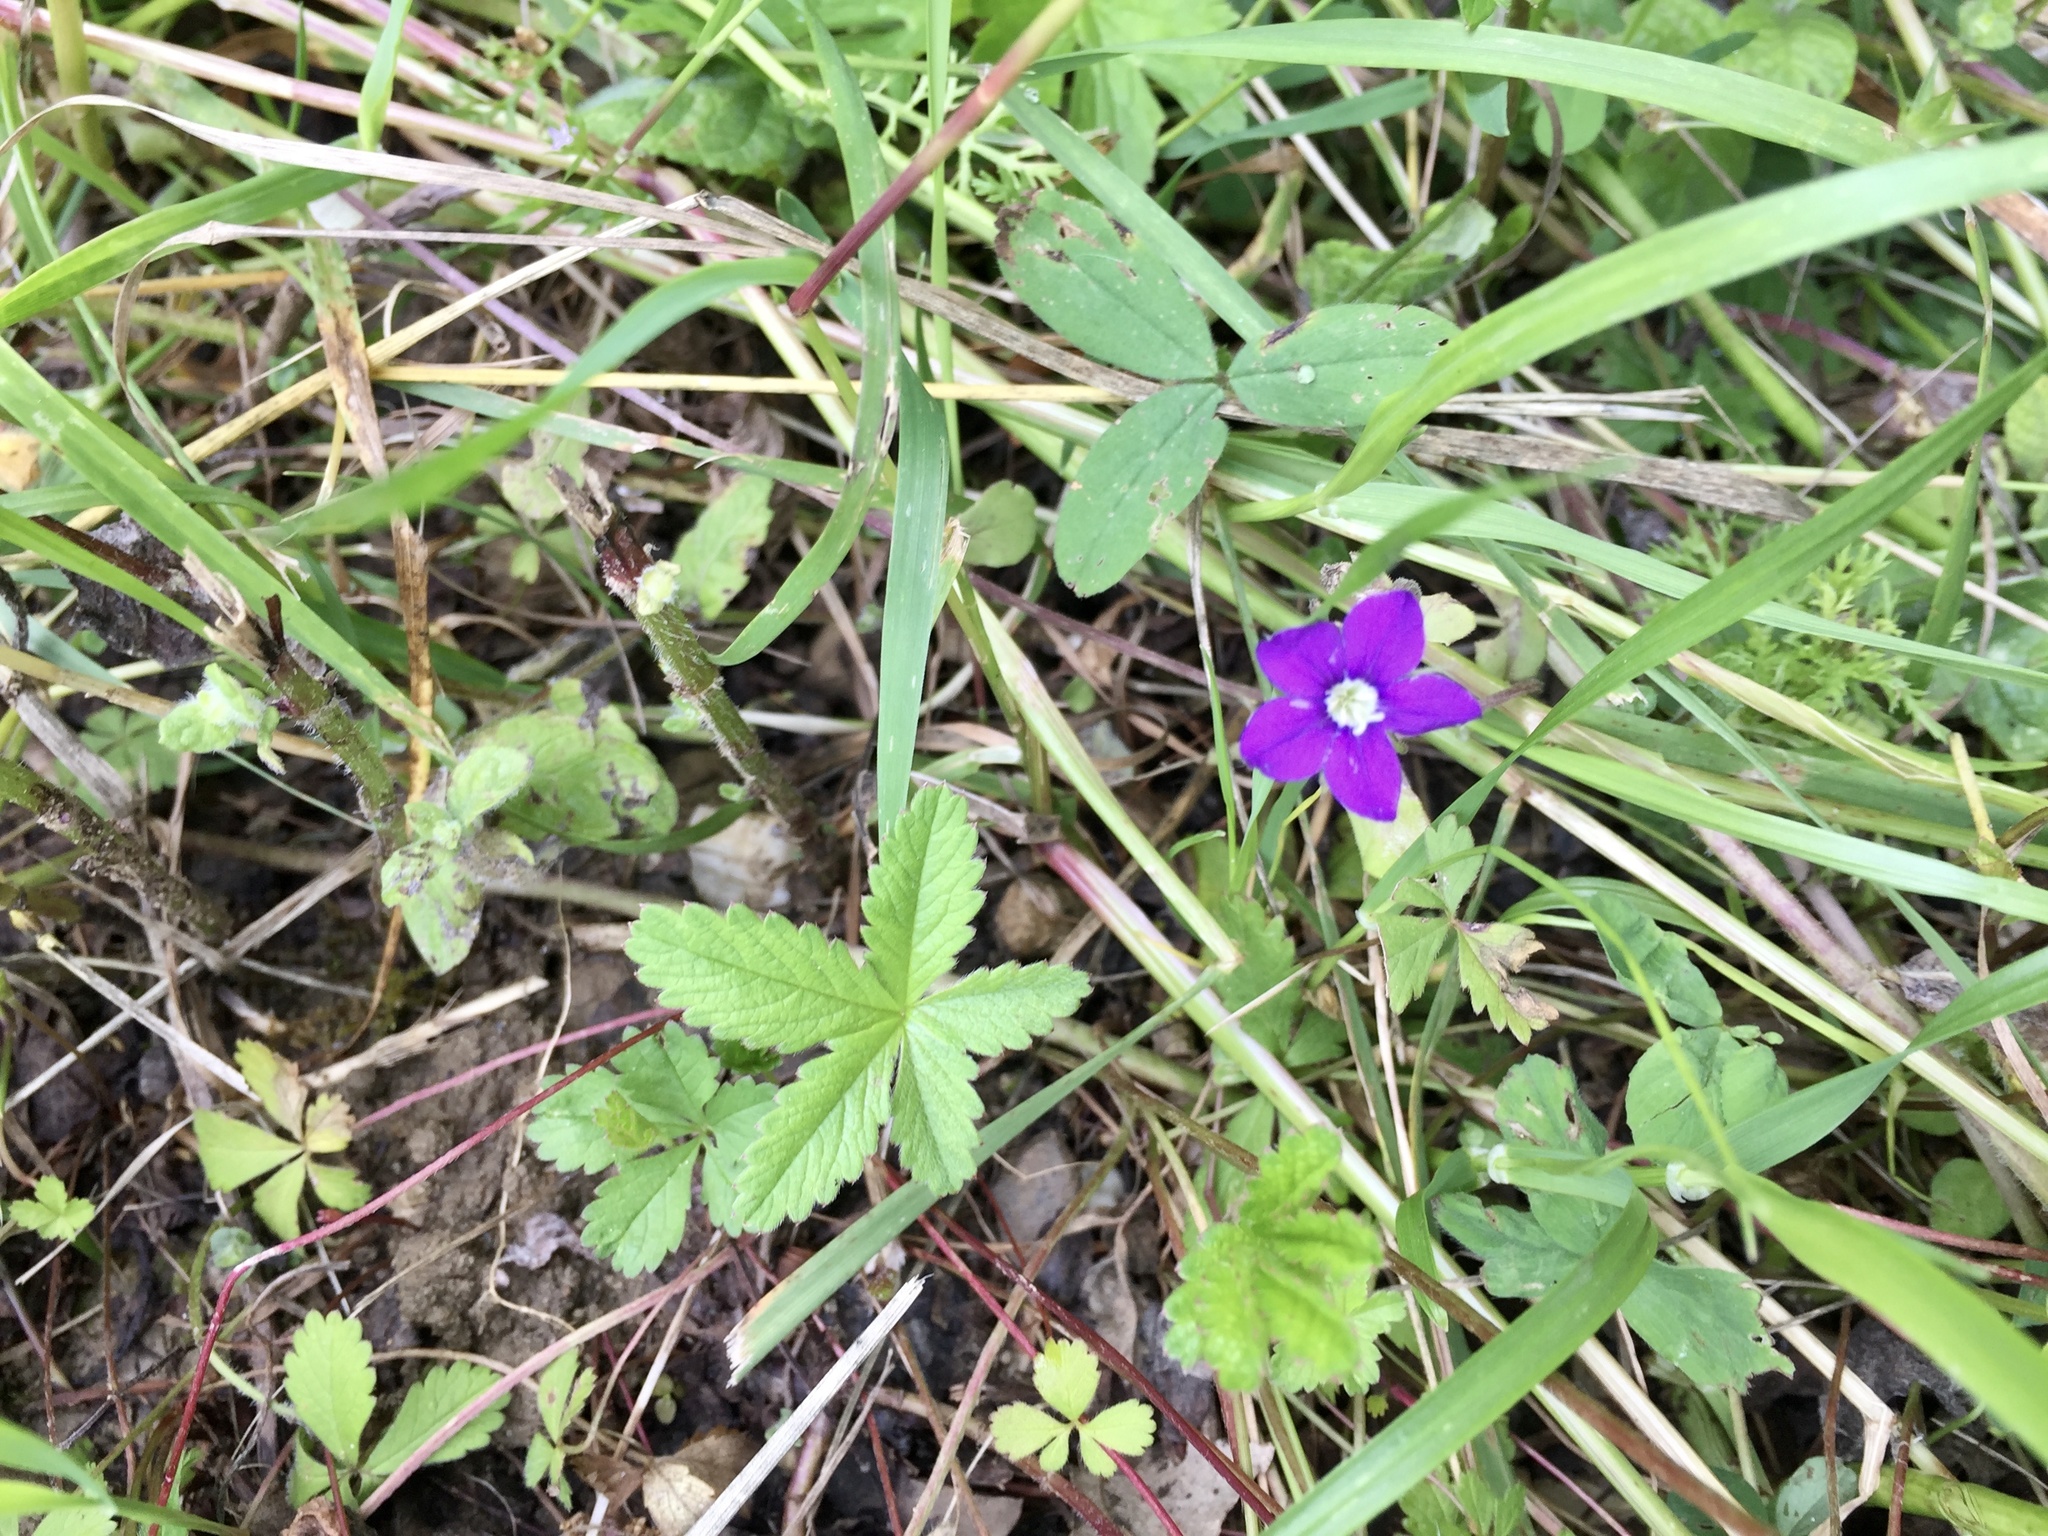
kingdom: Plantae
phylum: Tracheophyta
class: Magnoliopsida
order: Asterales
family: Campanulaceae
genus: Legousia
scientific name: Legousia speculum-veneris
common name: Large venus's-looking-glass
